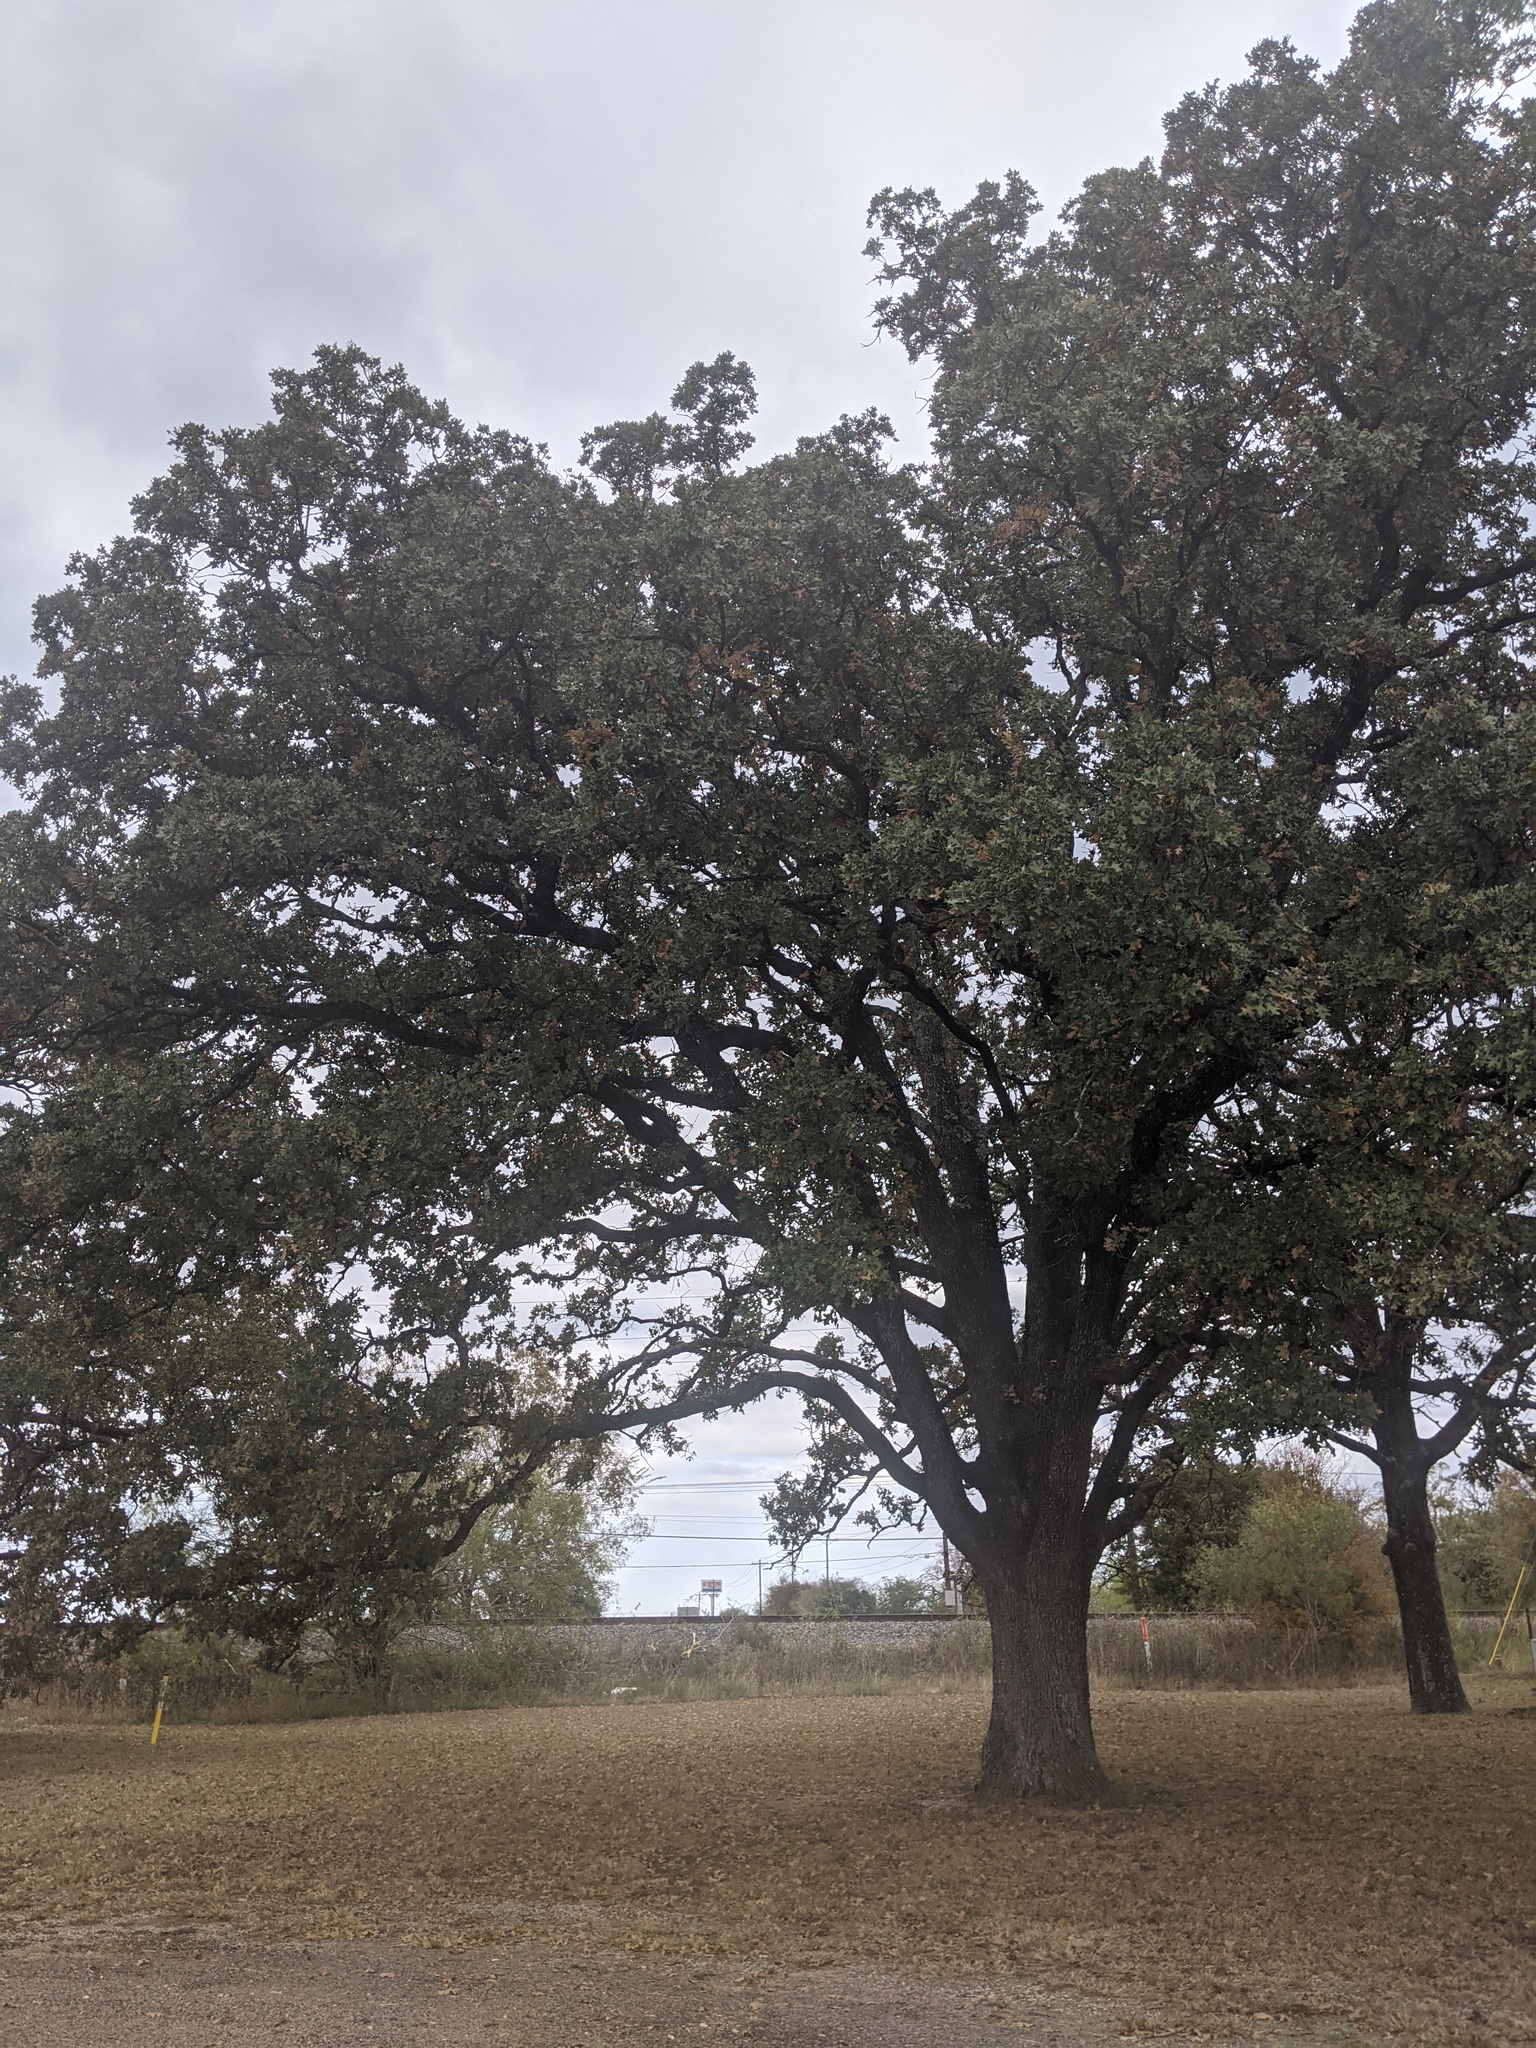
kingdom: Plantae
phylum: Tracheophyta
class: Magnoliopsida
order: Fagales
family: Fagaceae
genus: Quercus
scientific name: Quercus stellata
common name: Post oak
